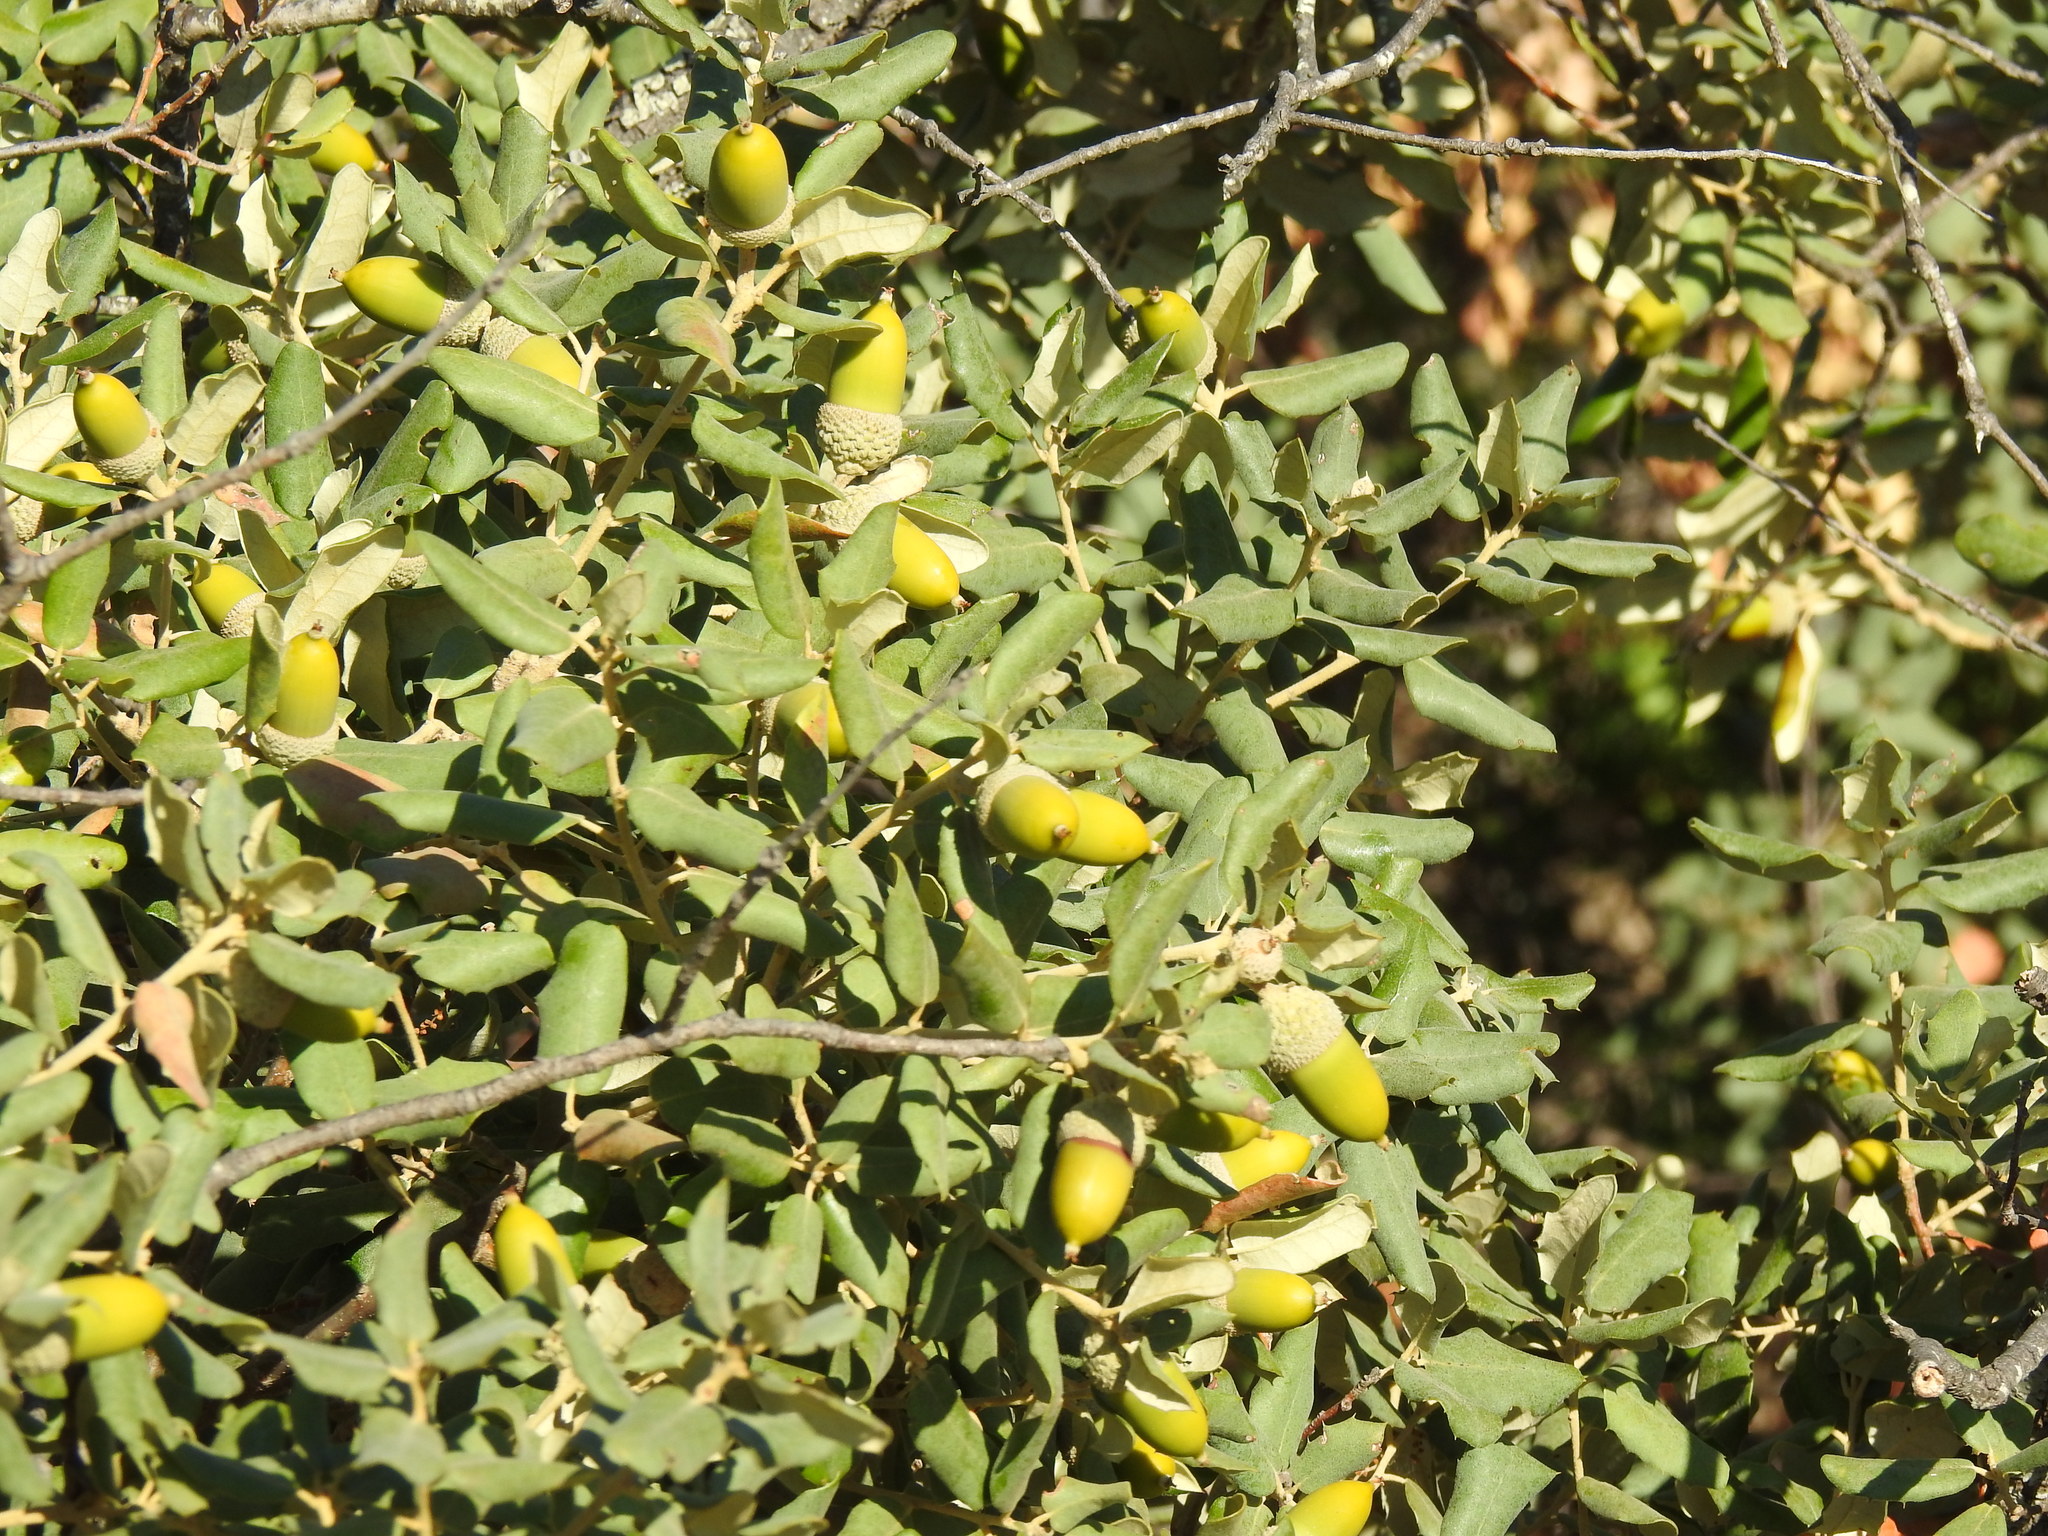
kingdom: Plantae
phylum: Tracheophyta
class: Magnoliopsida
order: Fagales
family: Fagaceae
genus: Quercus
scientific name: Quercus rotundifolia
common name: Holm oak
